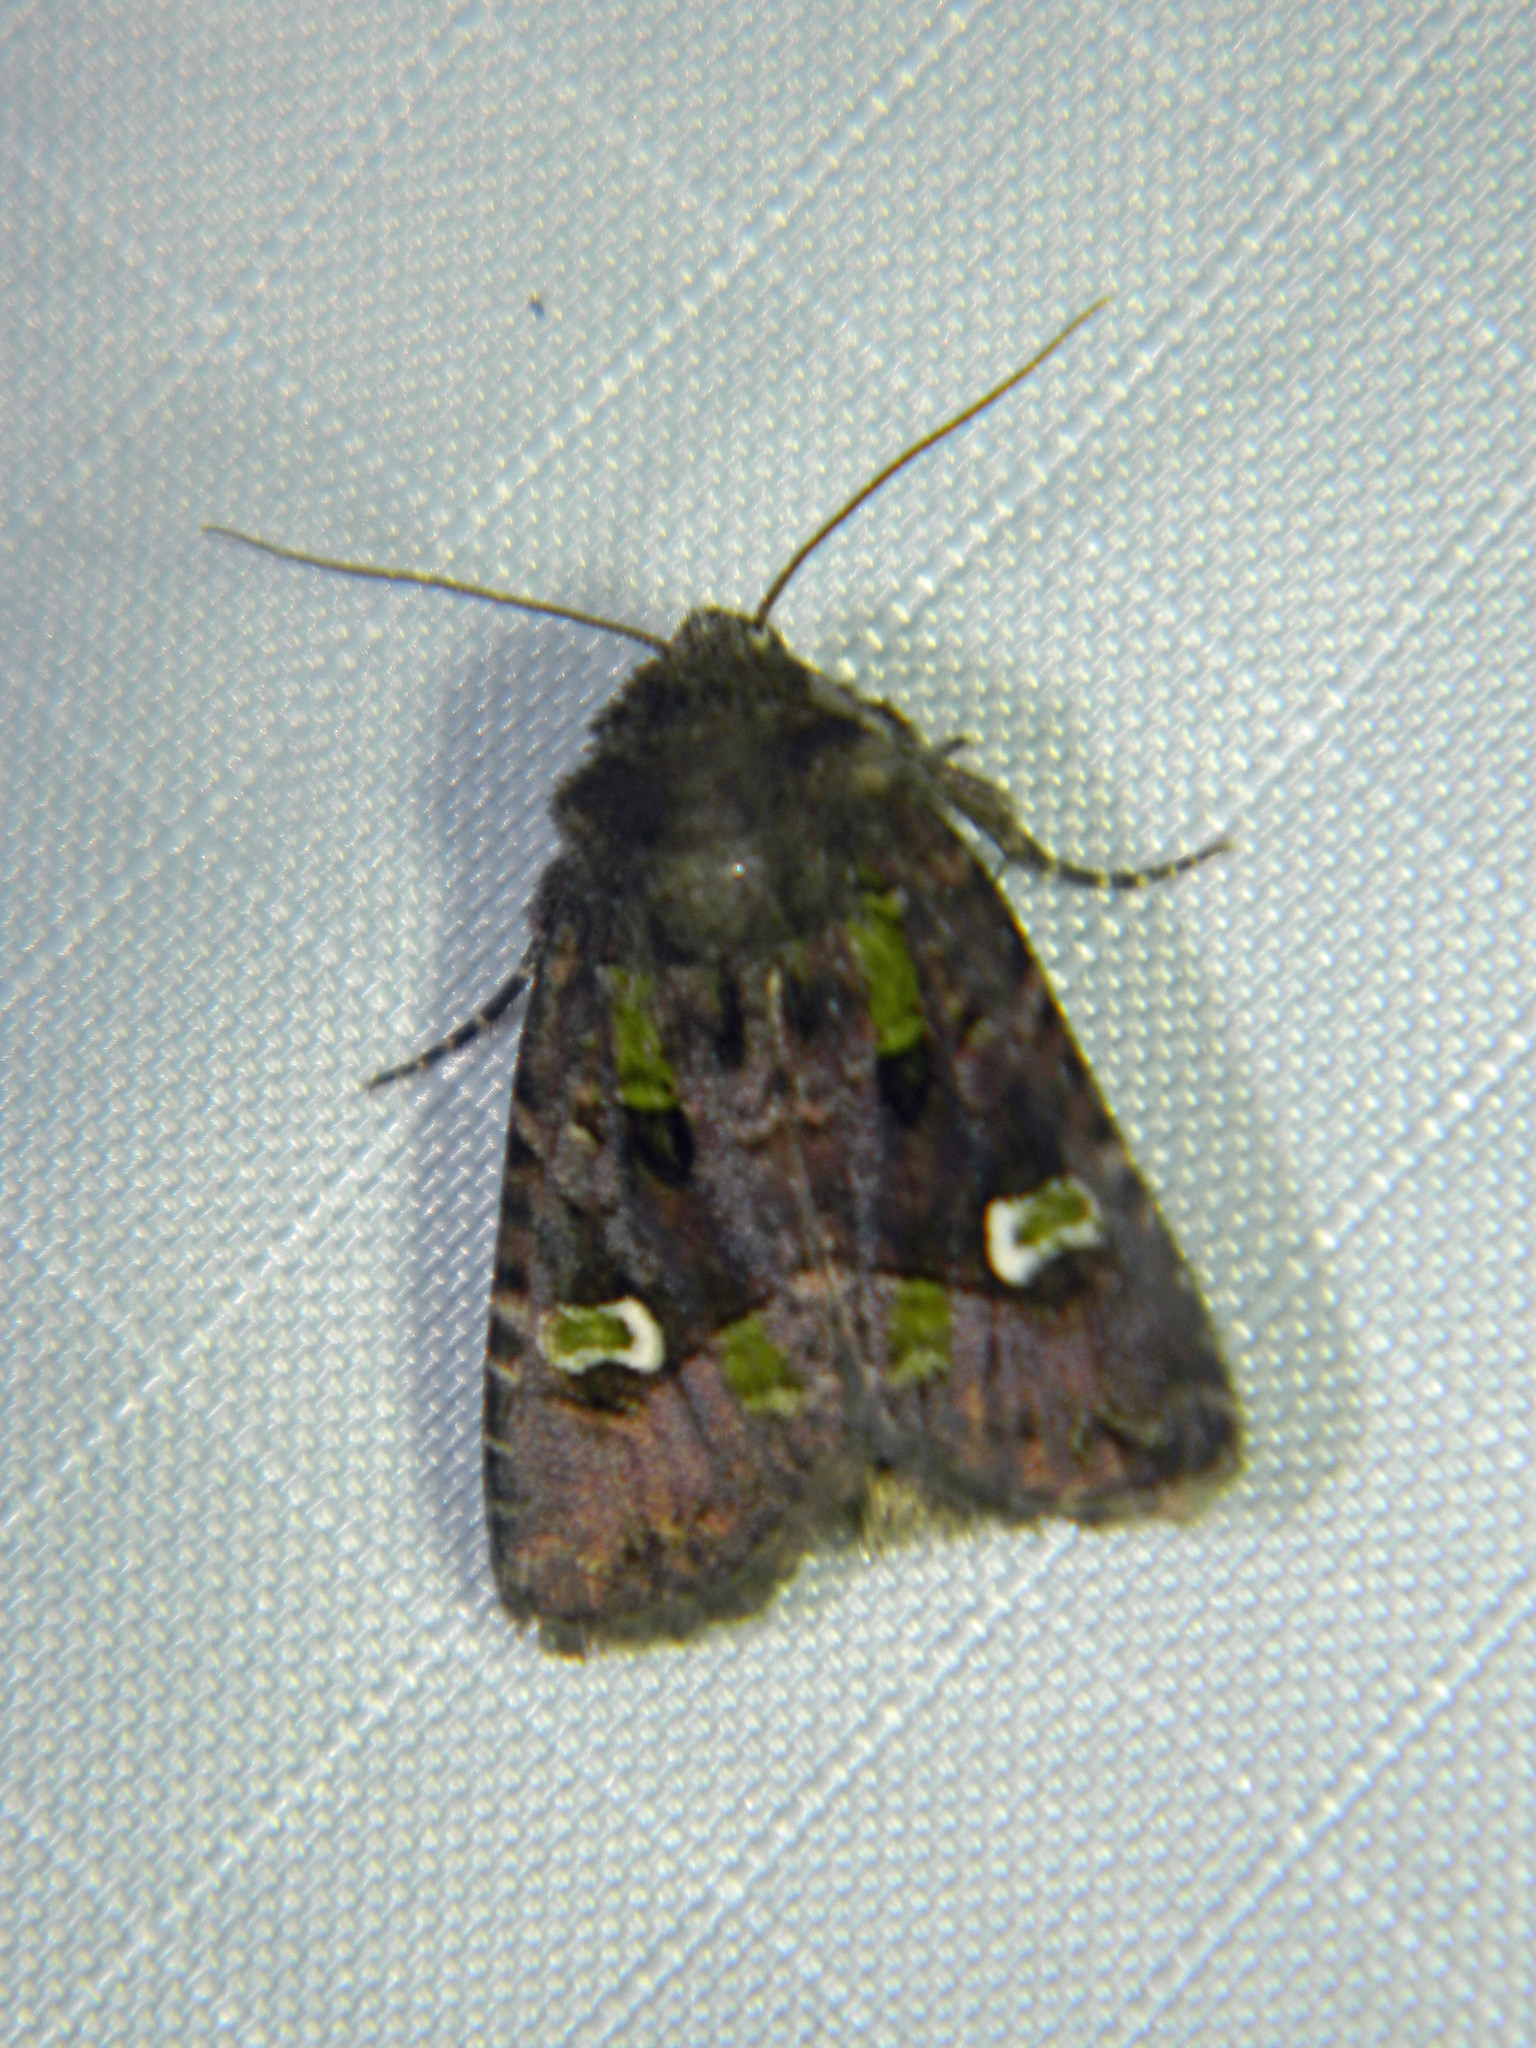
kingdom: Animalia
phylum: Arthropoda
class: Insecta
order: Lepidoptera
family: Noctuidae
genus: Lacinipolia
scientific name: Lacinipolia renigera
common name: Kidney-spotted minor
